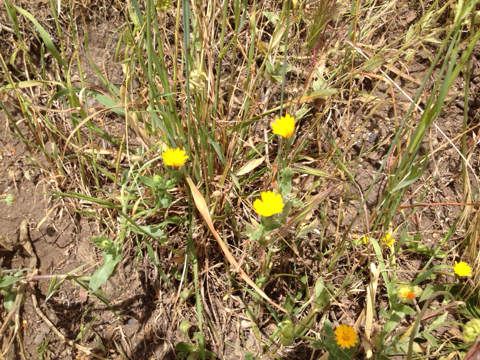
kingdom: Plantae
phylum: Tracheophyta
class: Magnoliopsida
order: Asterales
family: Asteraceae
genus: Calendula
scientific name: Calendula arvensis
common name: Field marigold
